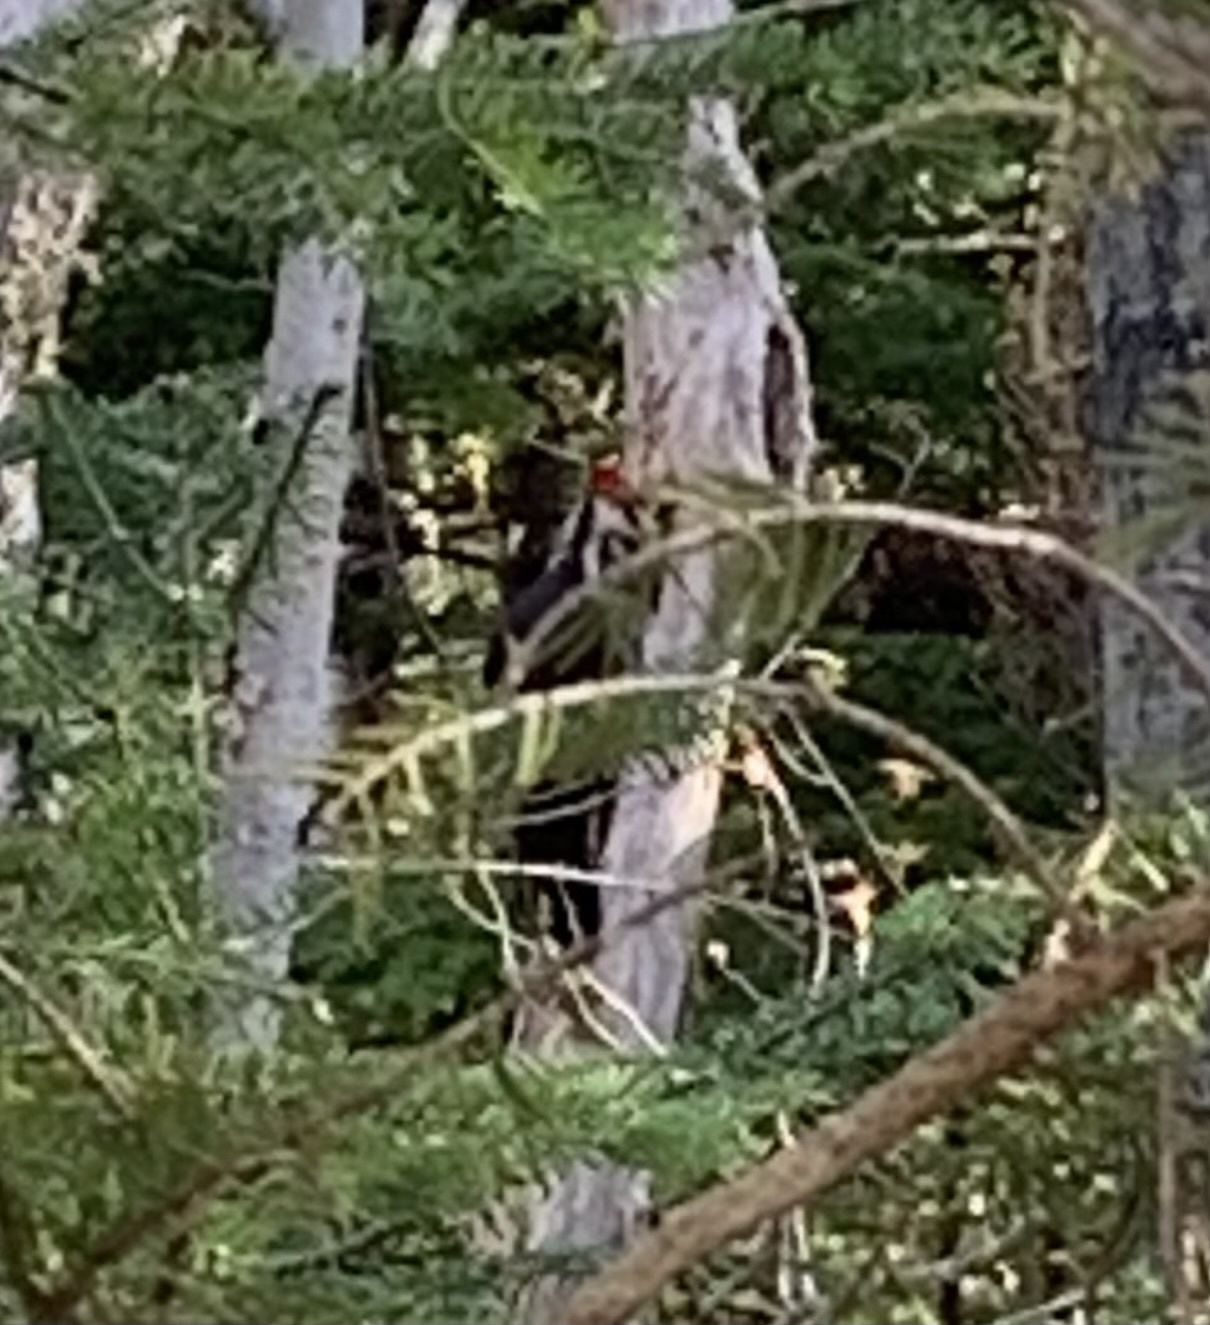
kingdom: Animalia
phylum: Chordata
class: Aves
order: Piciformes
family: Picidae
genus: Dryocopus
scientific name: Dryocopus pileatus
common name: Pileated woodpecker
